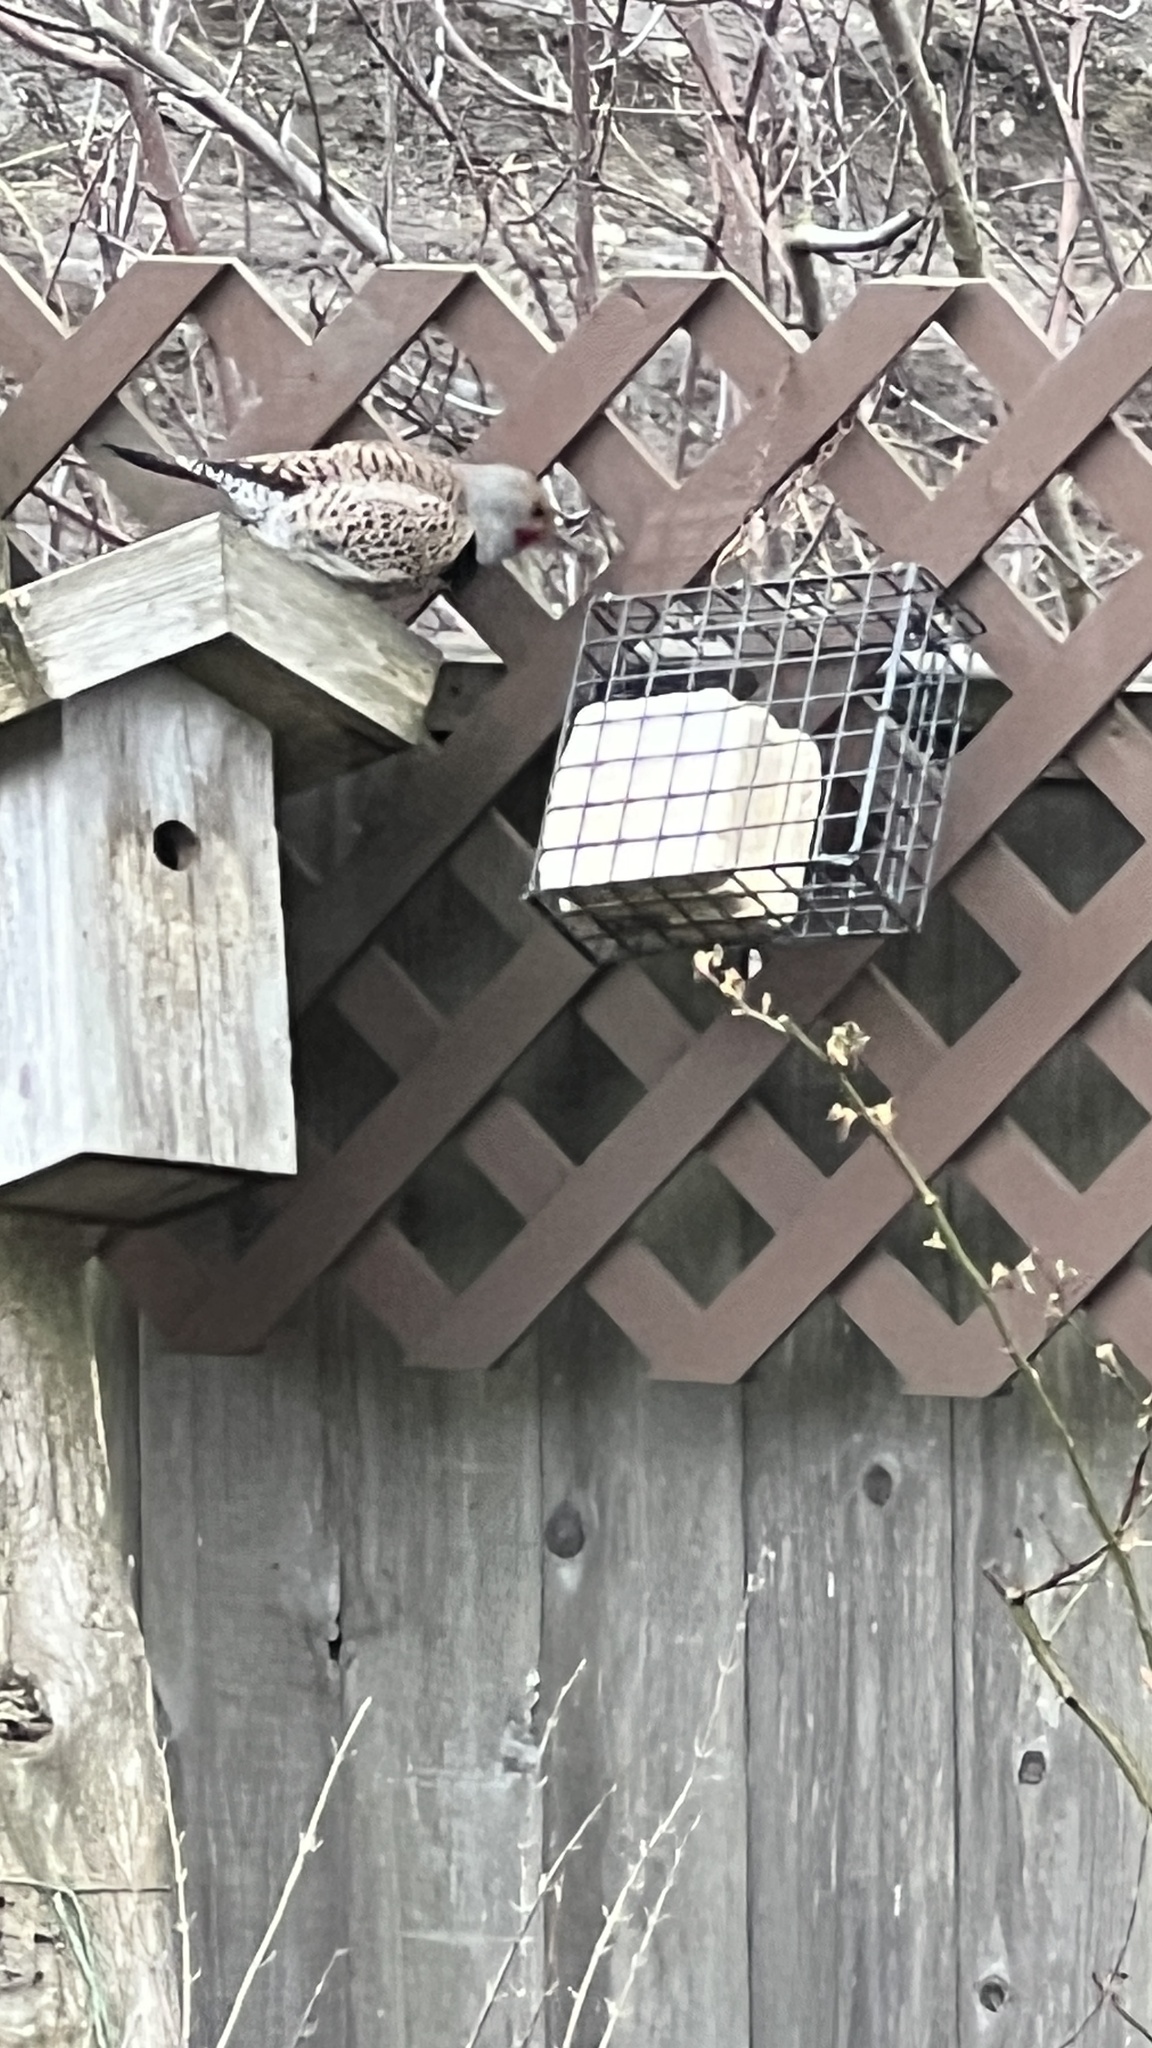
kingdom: Animalia
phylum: Chordata
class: Aves
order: Piciformes
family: Picidae
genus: Colaptes
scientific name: Colaptes auratus
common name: Northern flicker
